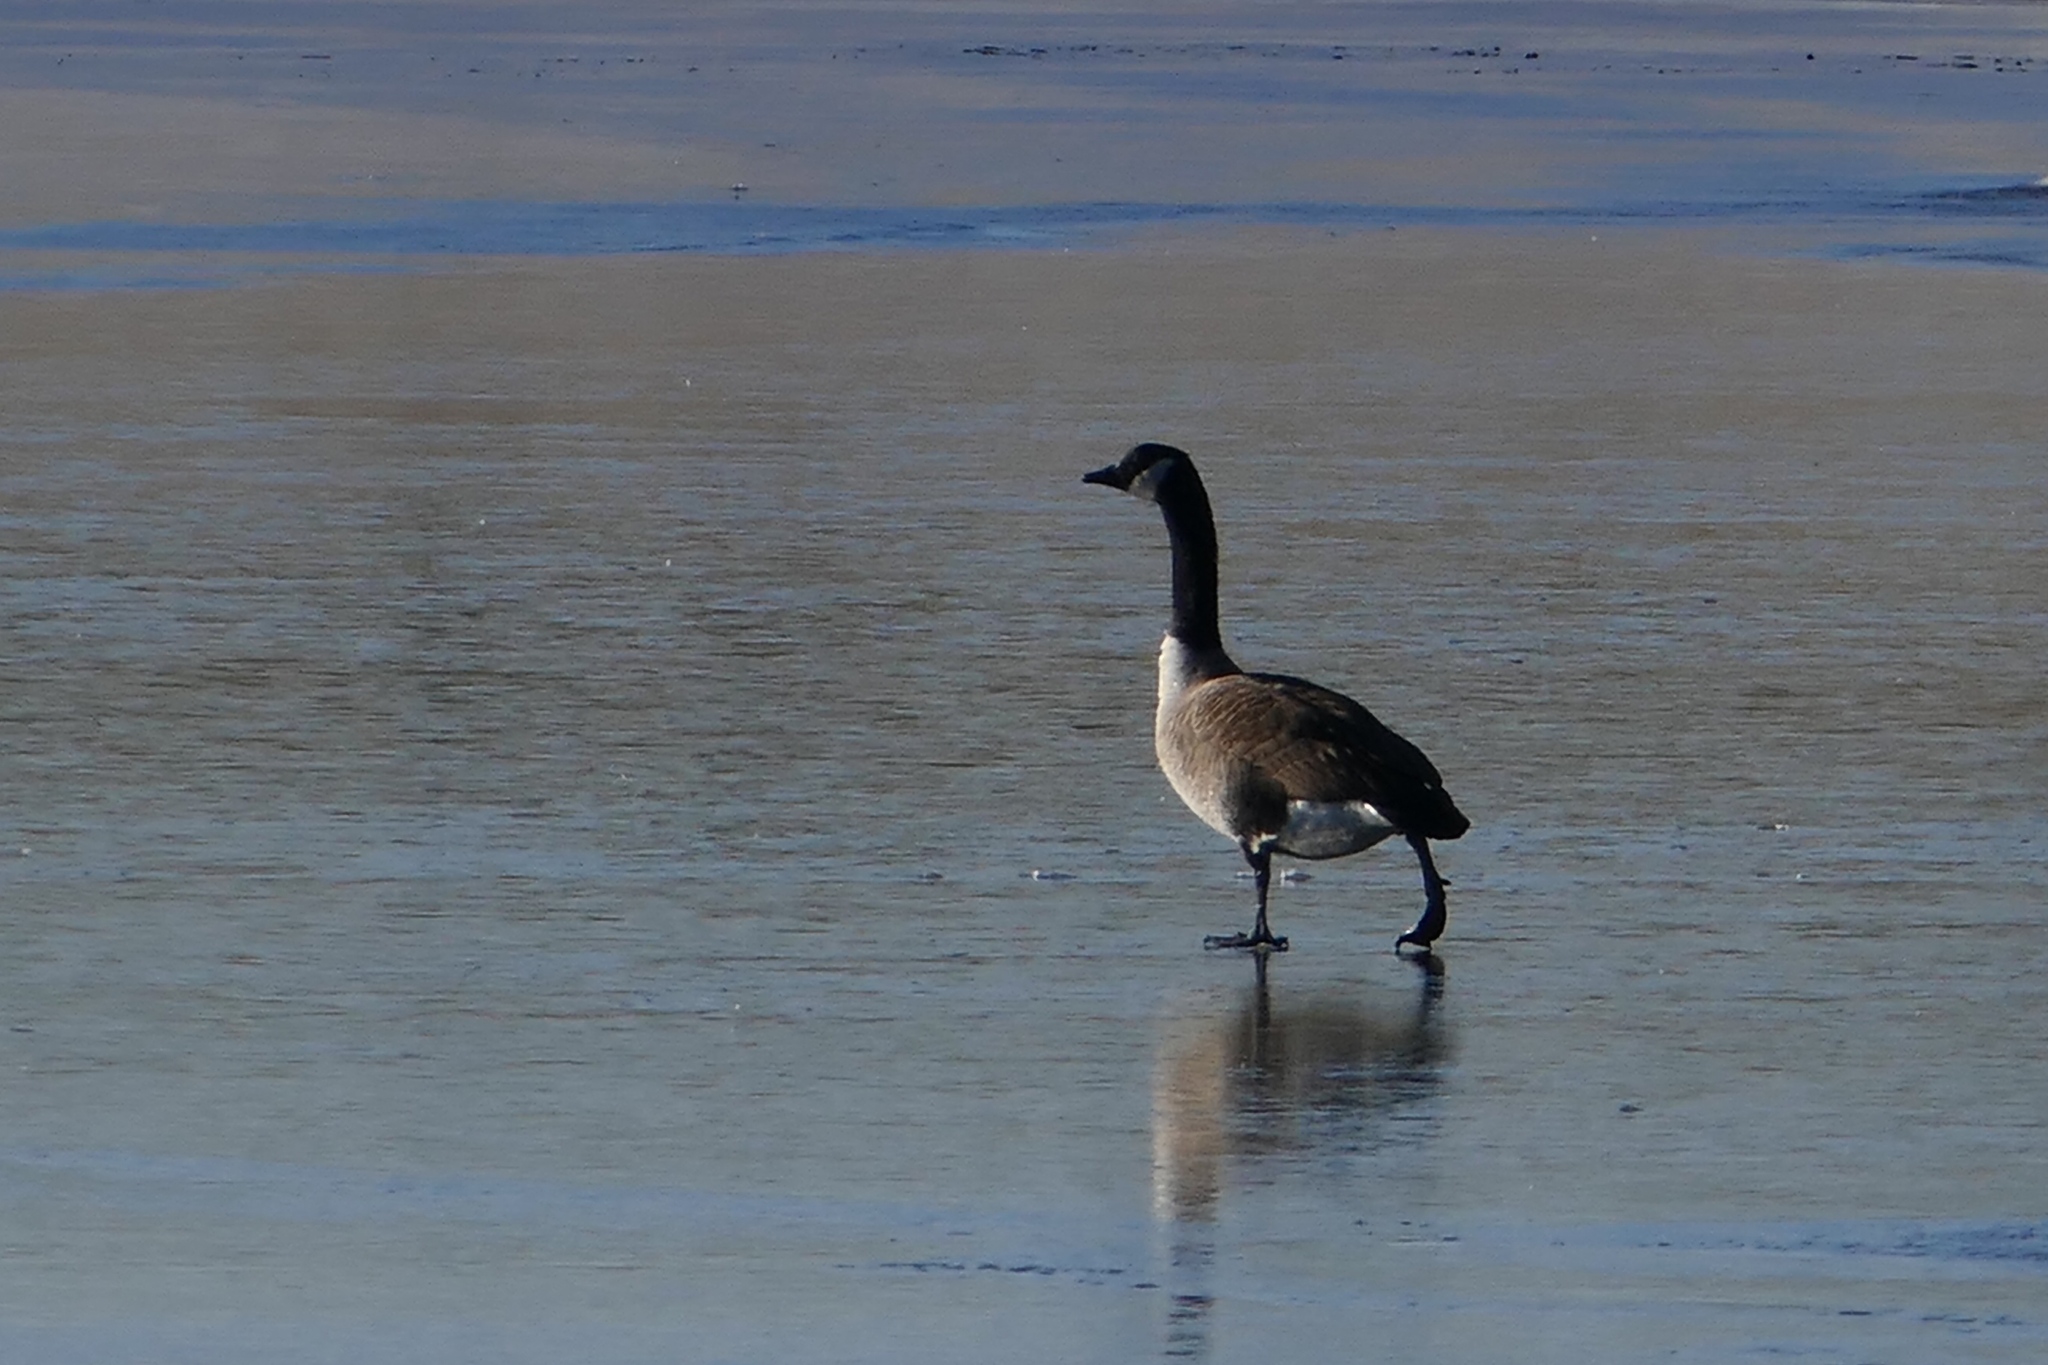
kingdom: Animalia
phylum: Chordata
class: Aves
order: Anseriformes
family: Anatidae
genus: Branta
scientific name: Branta canadensis
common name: Canada goose
